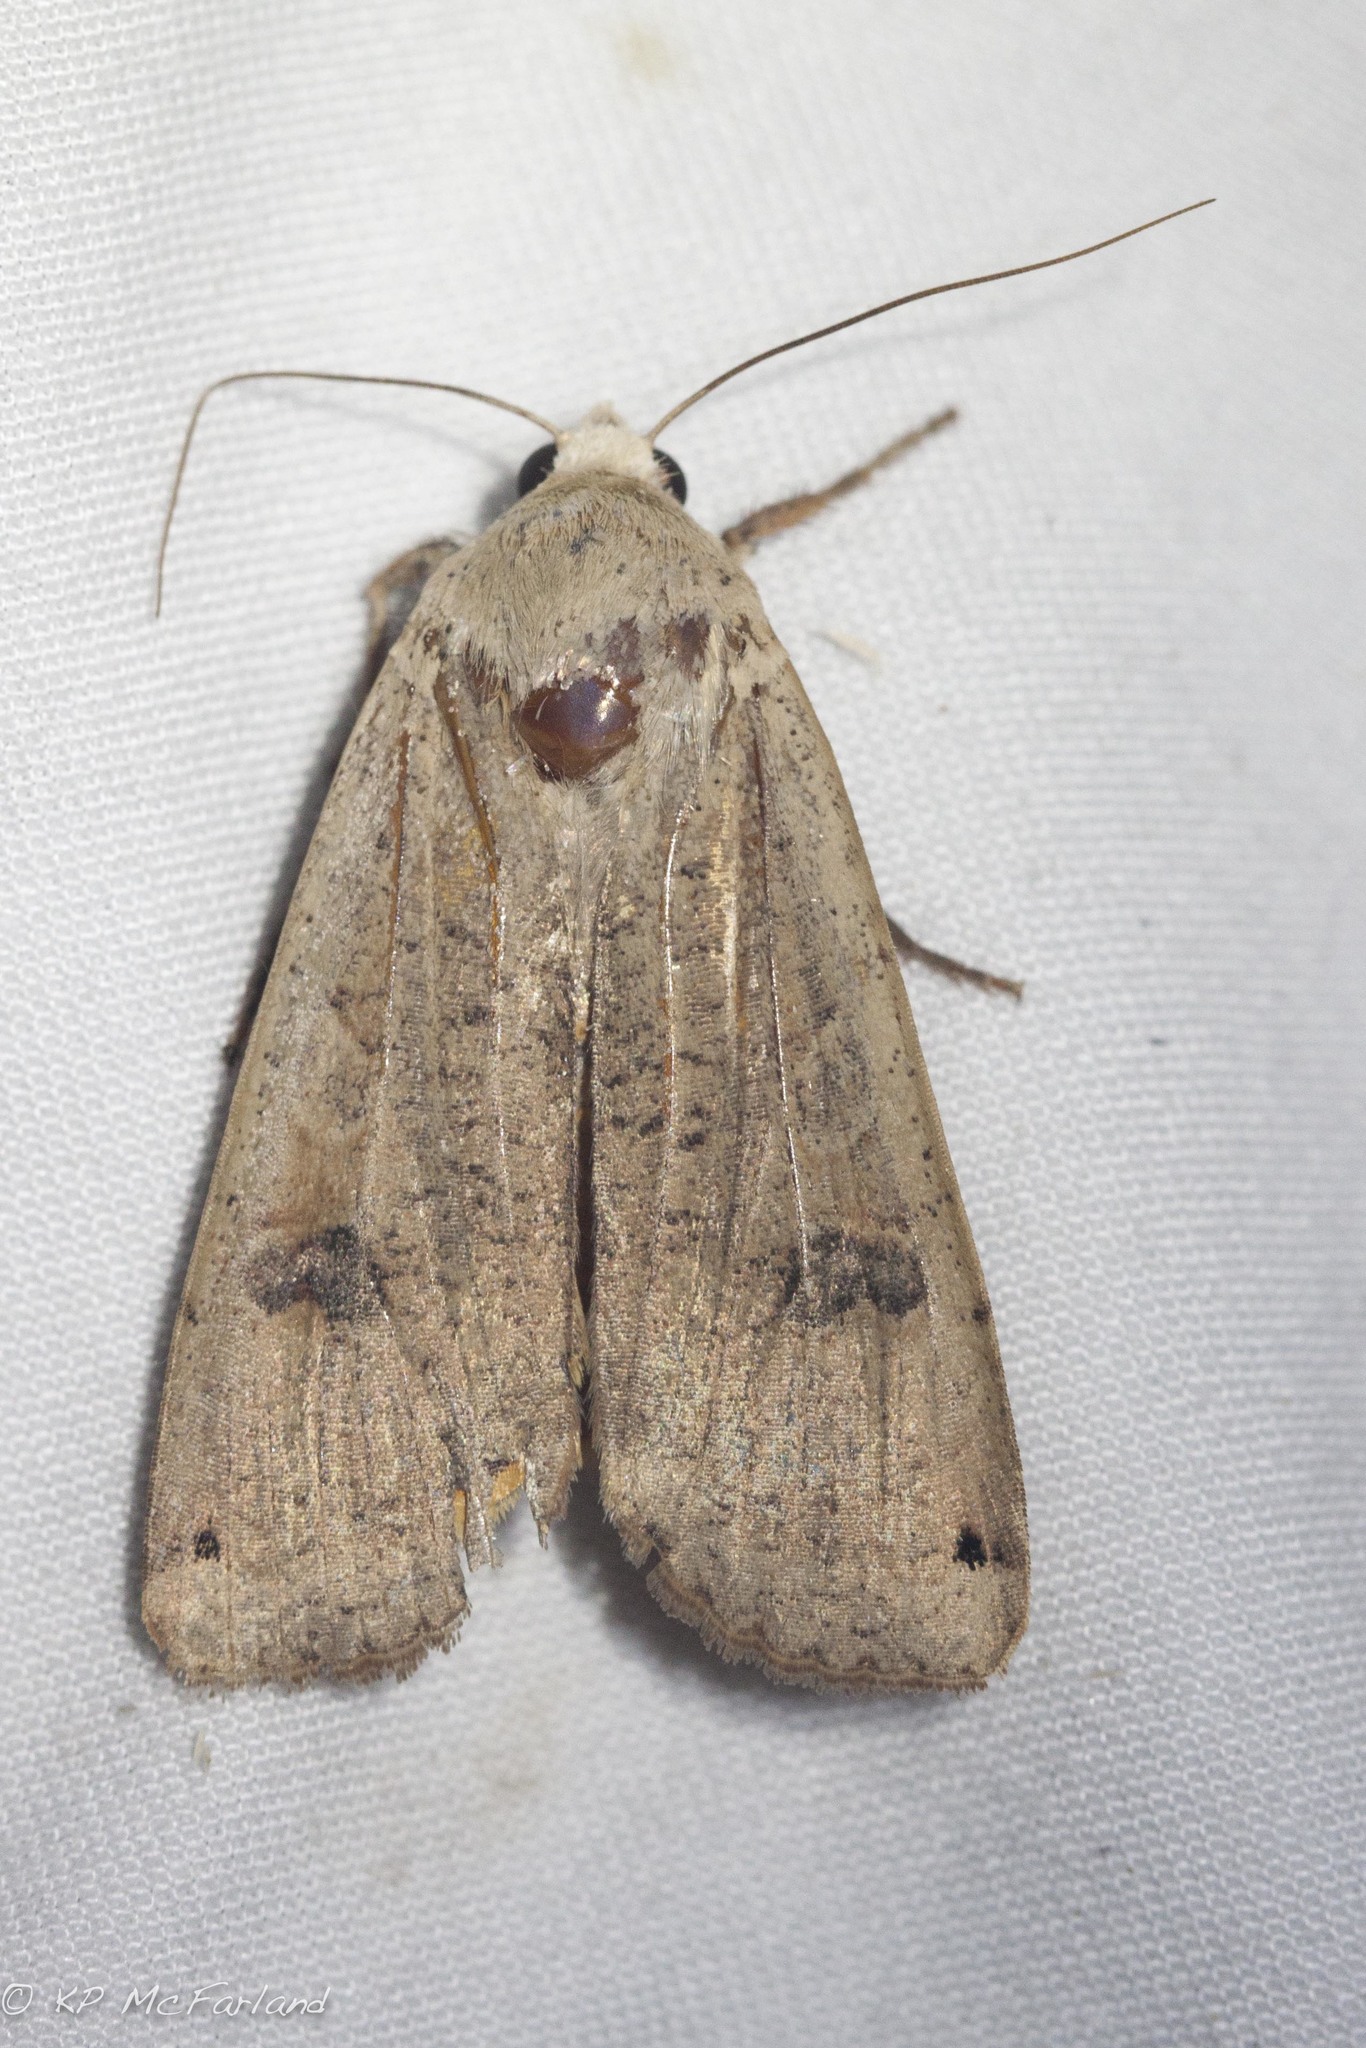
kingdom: Animalia
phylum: Arthropoda
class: Insecta
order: Lepidoptera
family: Noctuidae
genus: Noctua
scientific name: Noctua pronuba
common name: Large yellow underwing
